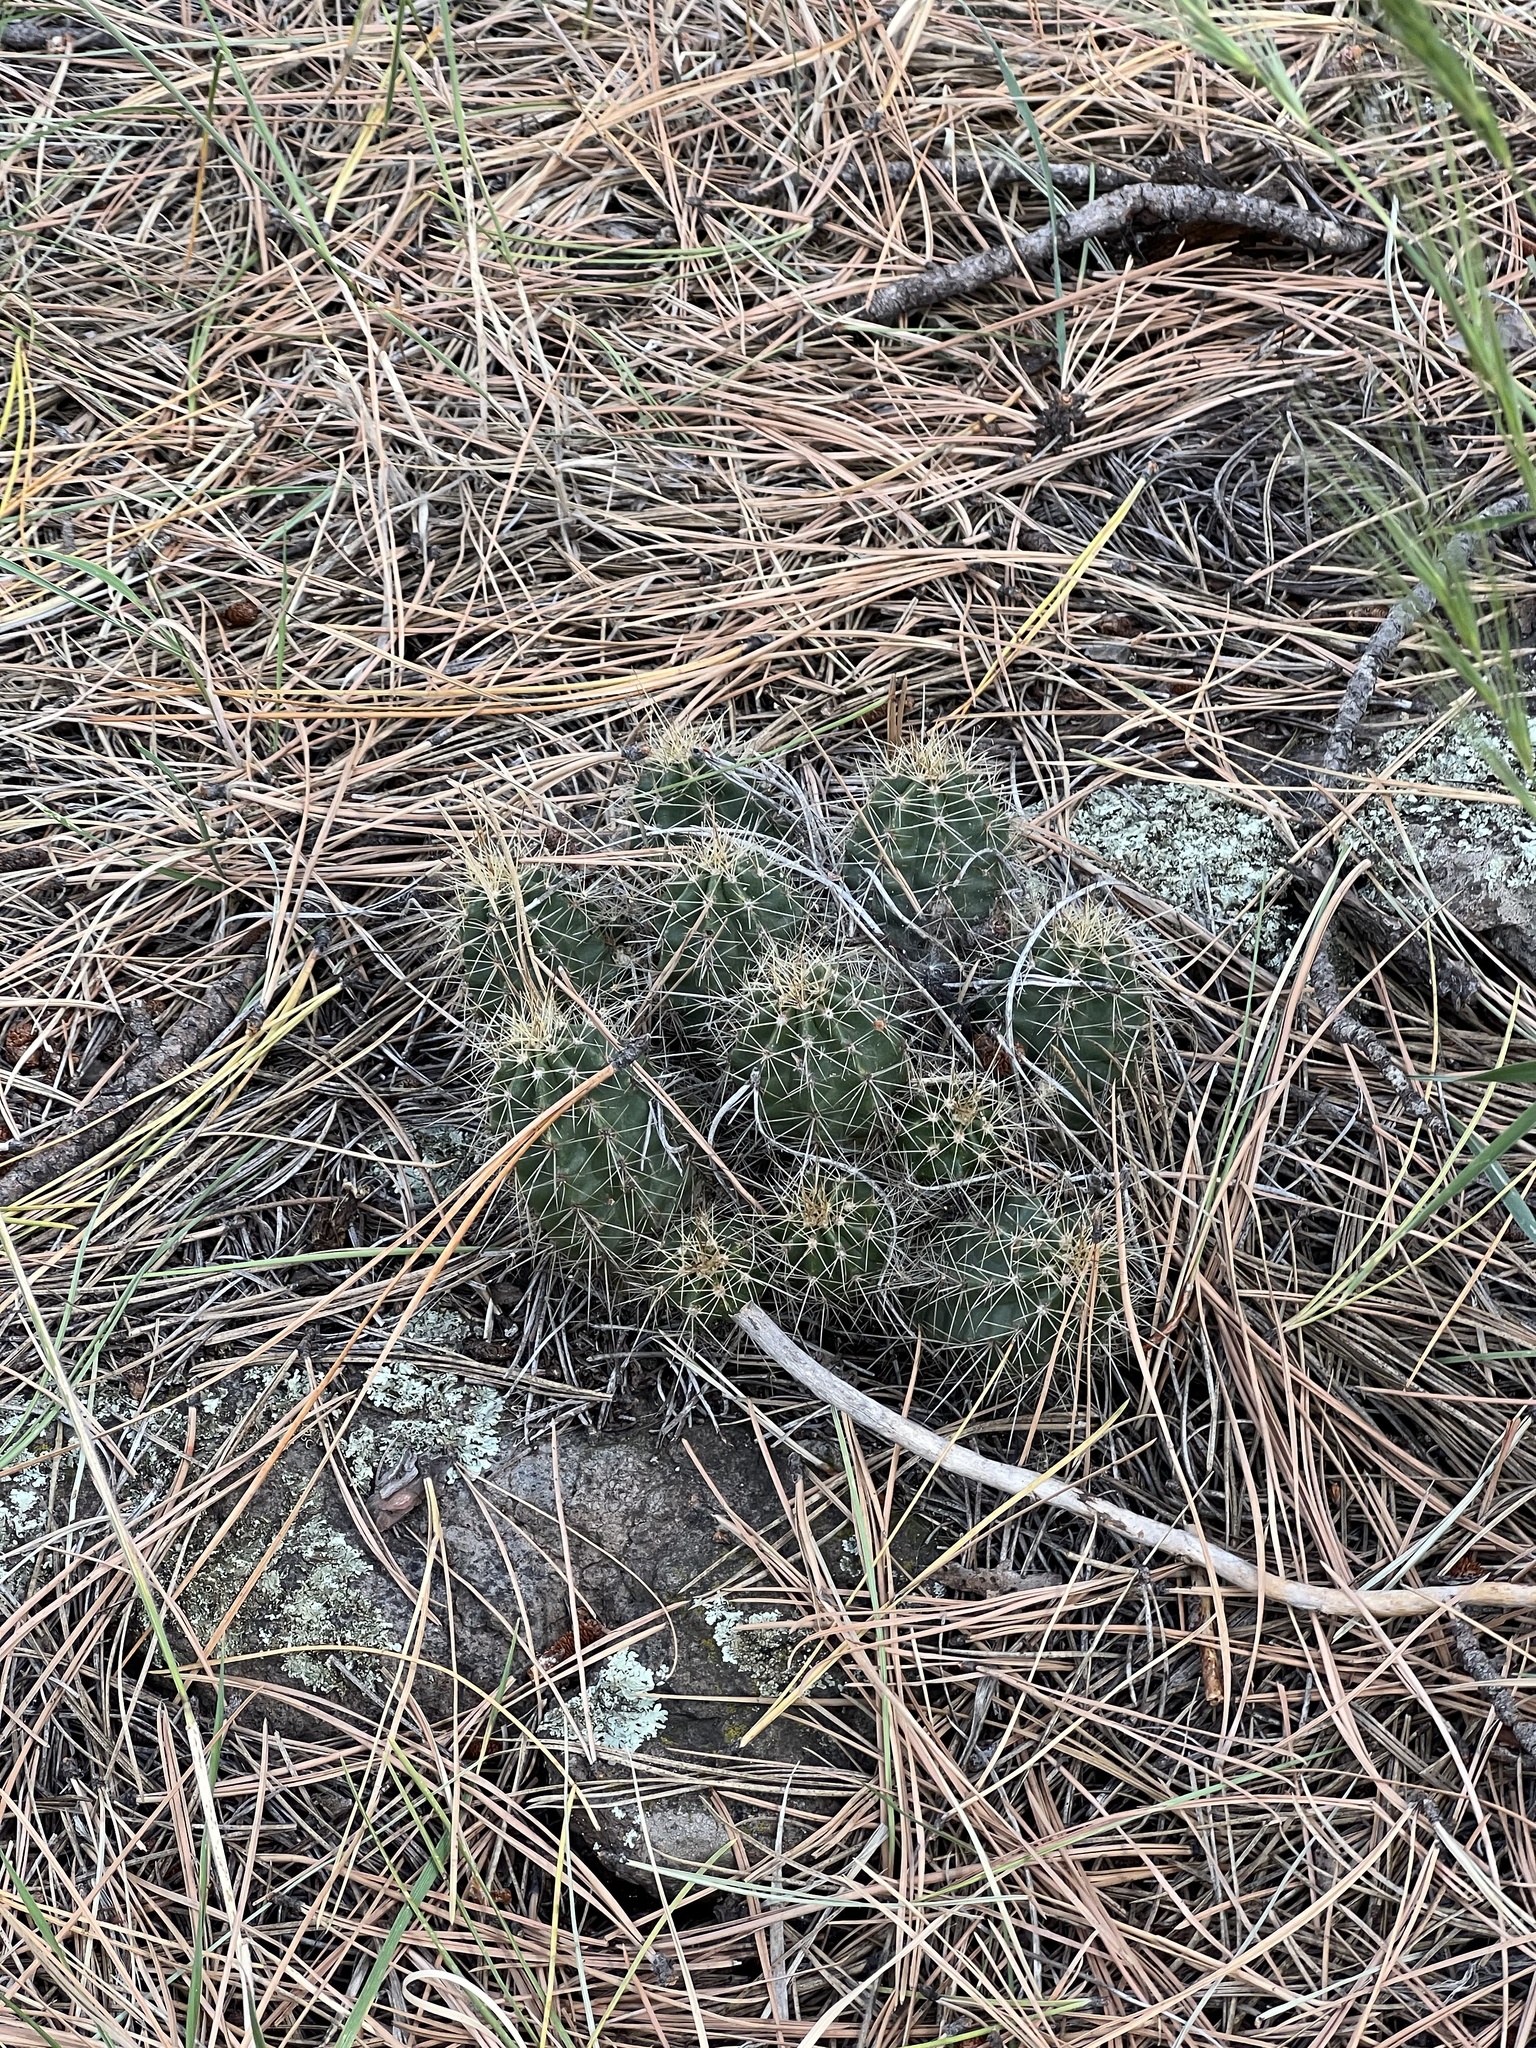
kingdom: Plantae
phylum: Tracheophyta
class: Magnoliopsida
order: Caryophyllales
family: Cactaceae
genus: Echinocereus
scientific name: Echinocereus bakeri
